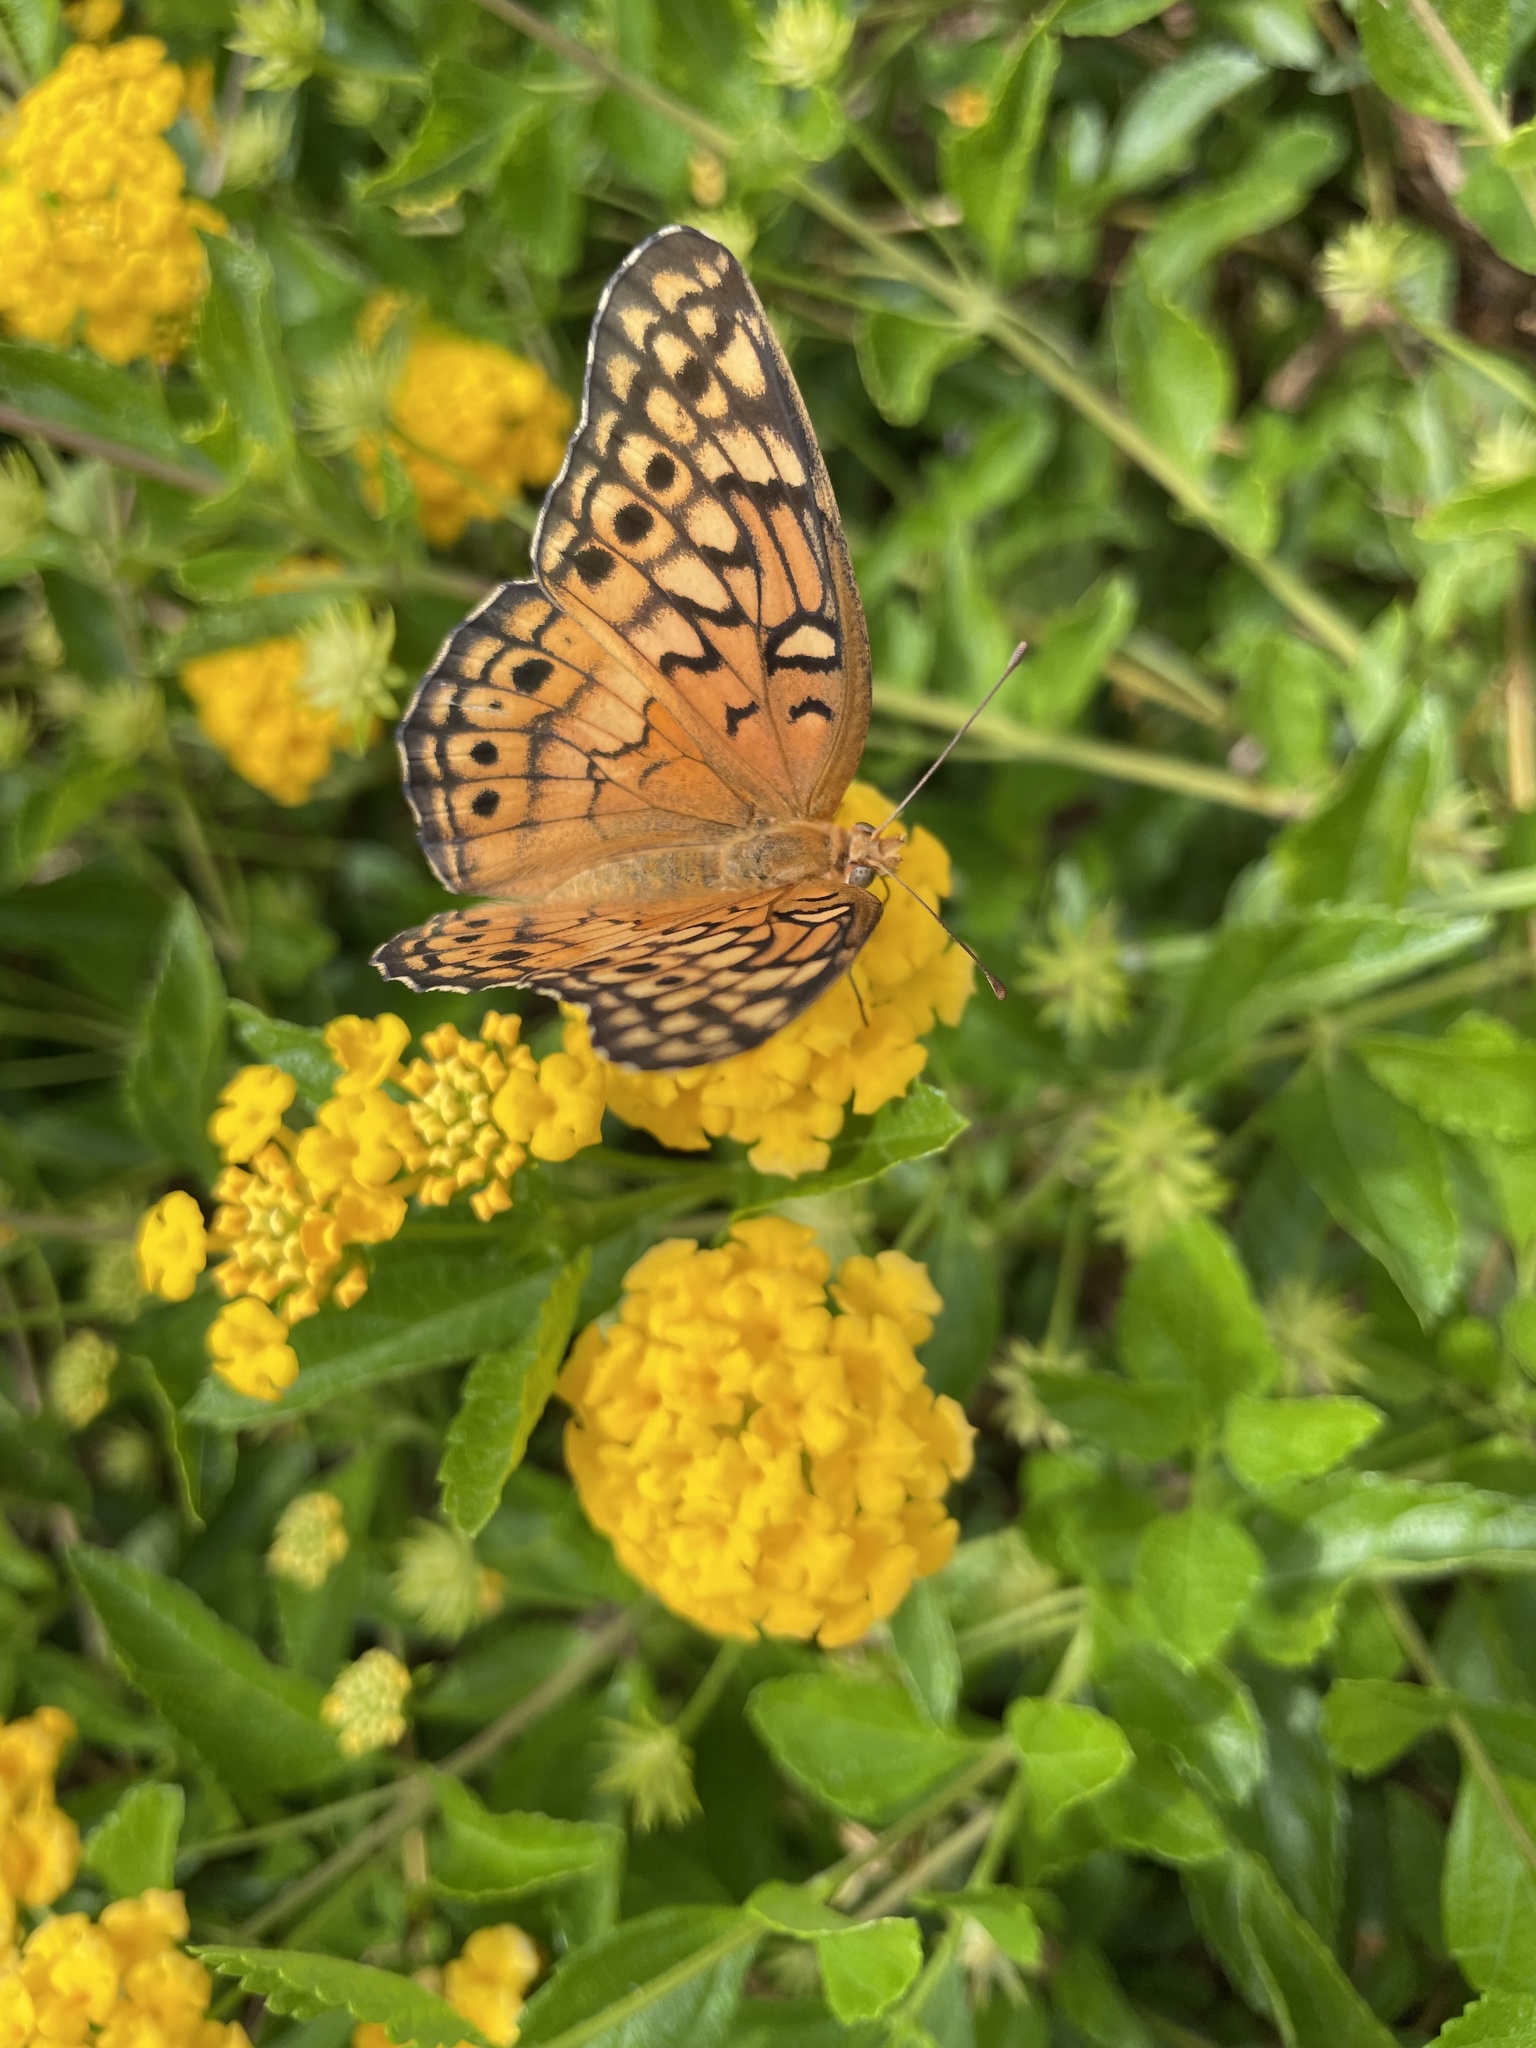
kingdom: Animalia
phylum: Arthropoda
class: Insecta
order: Lepidoptera
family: Nymphalidae
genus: Euptoieta
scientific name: Euptoieta claudia
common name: Variegated fritillary
